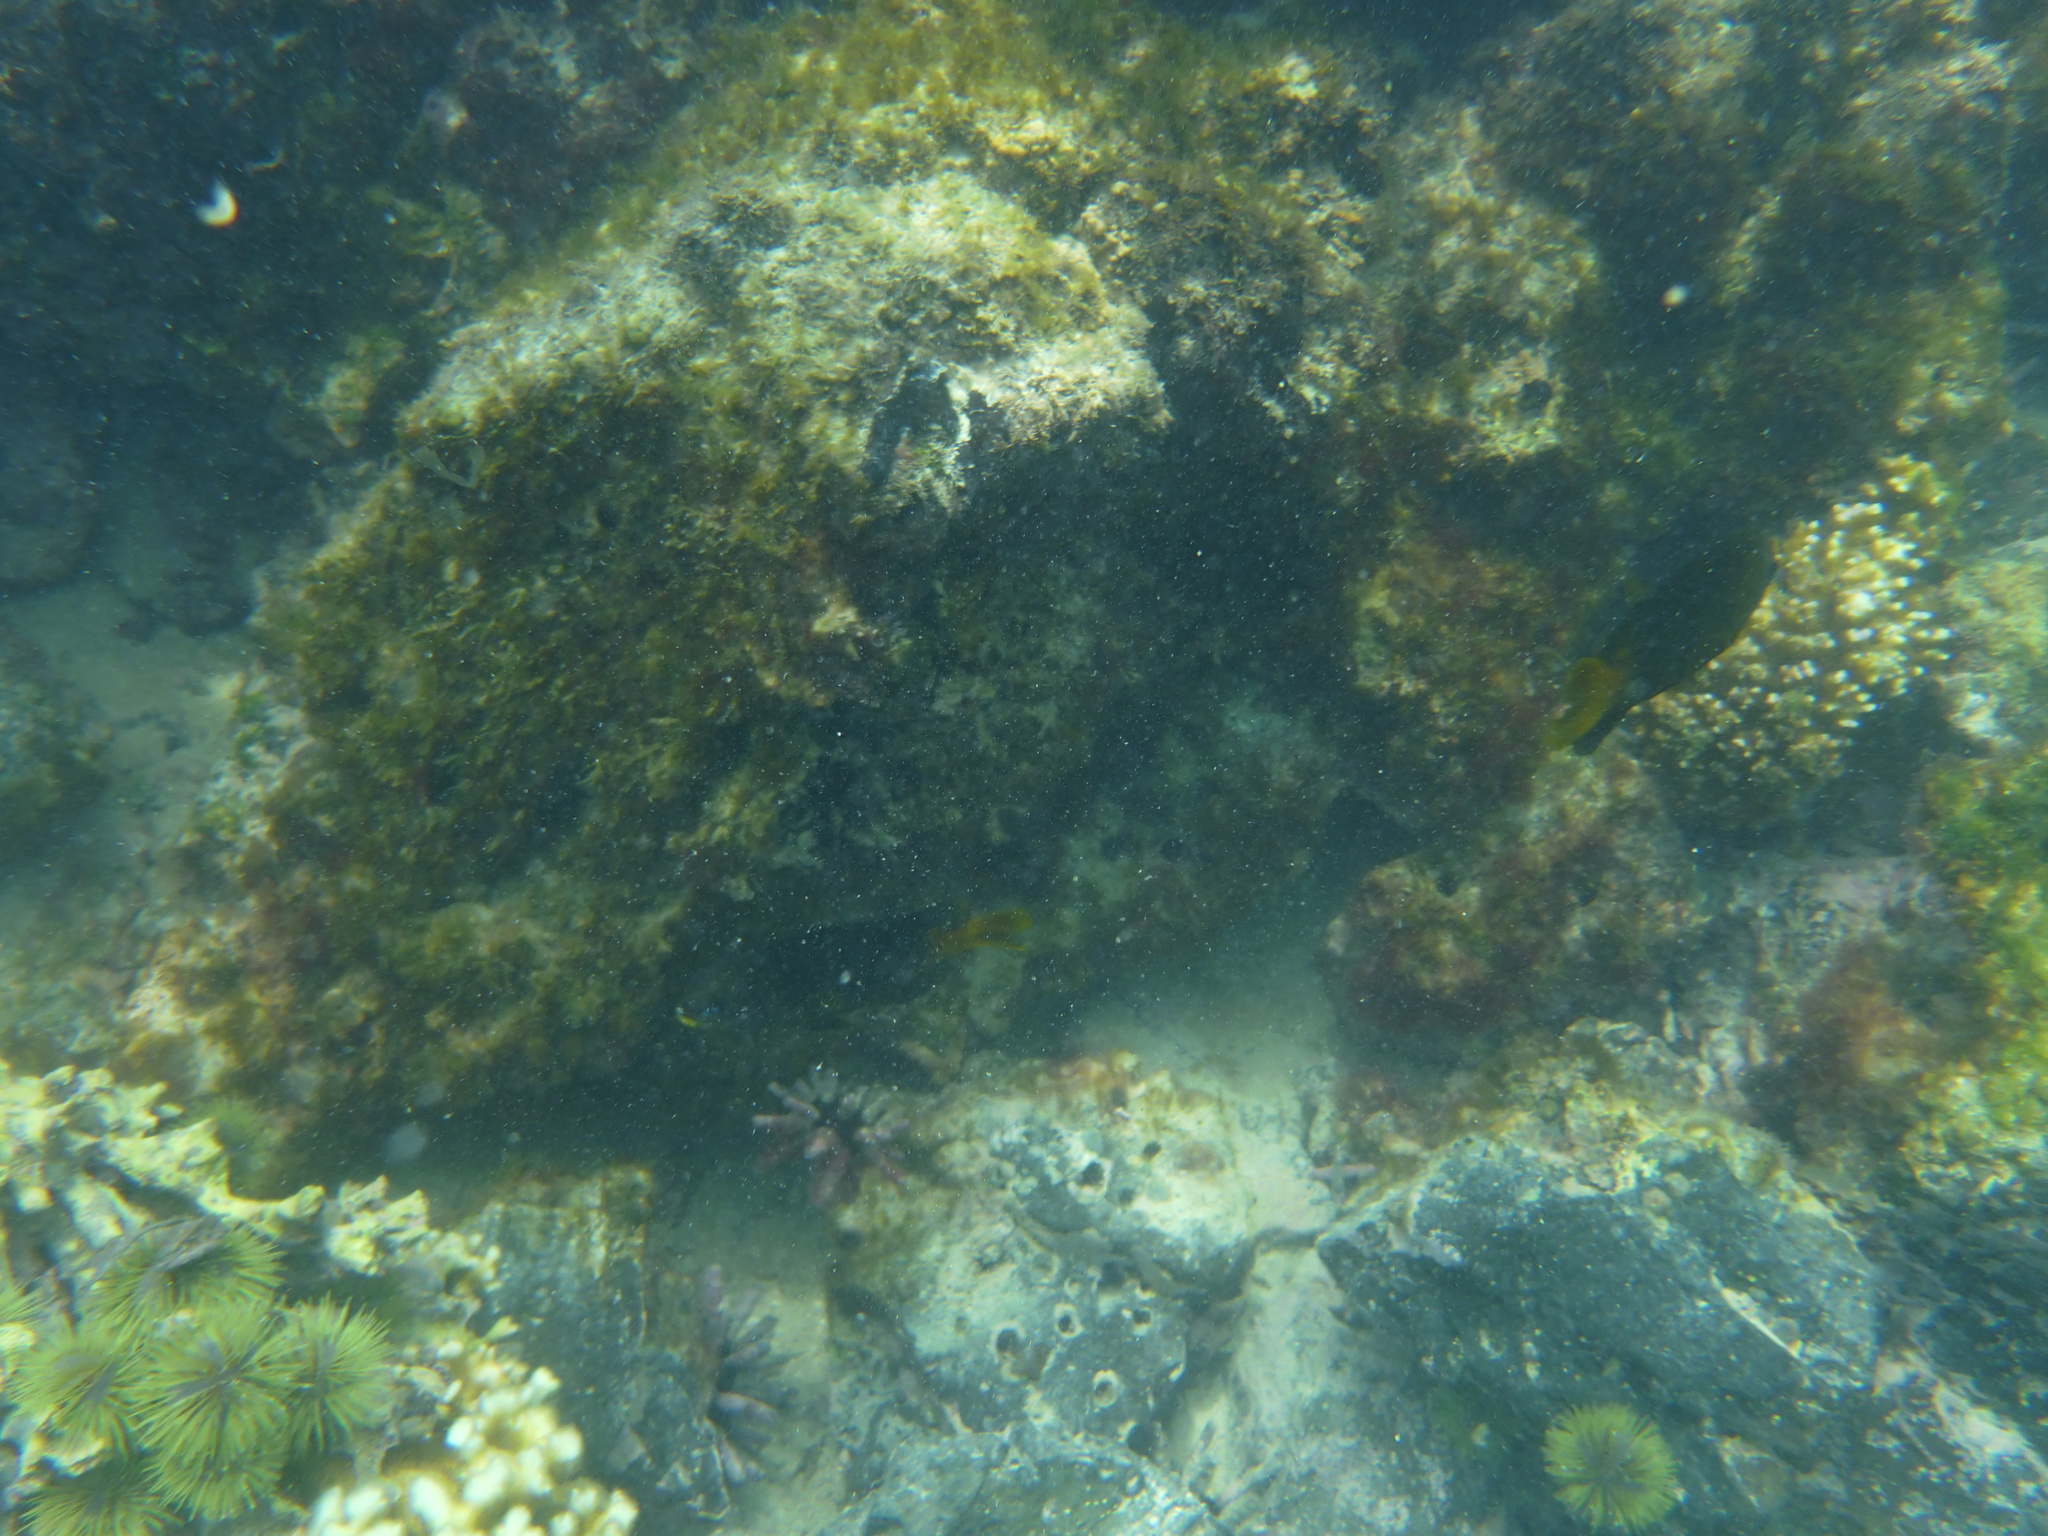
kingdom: Animalia
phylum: Chordata
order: Perciformes
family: Pomacentridae
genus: Stegastes
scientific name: Stegastes arcifrons
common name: Galapagos gregory
